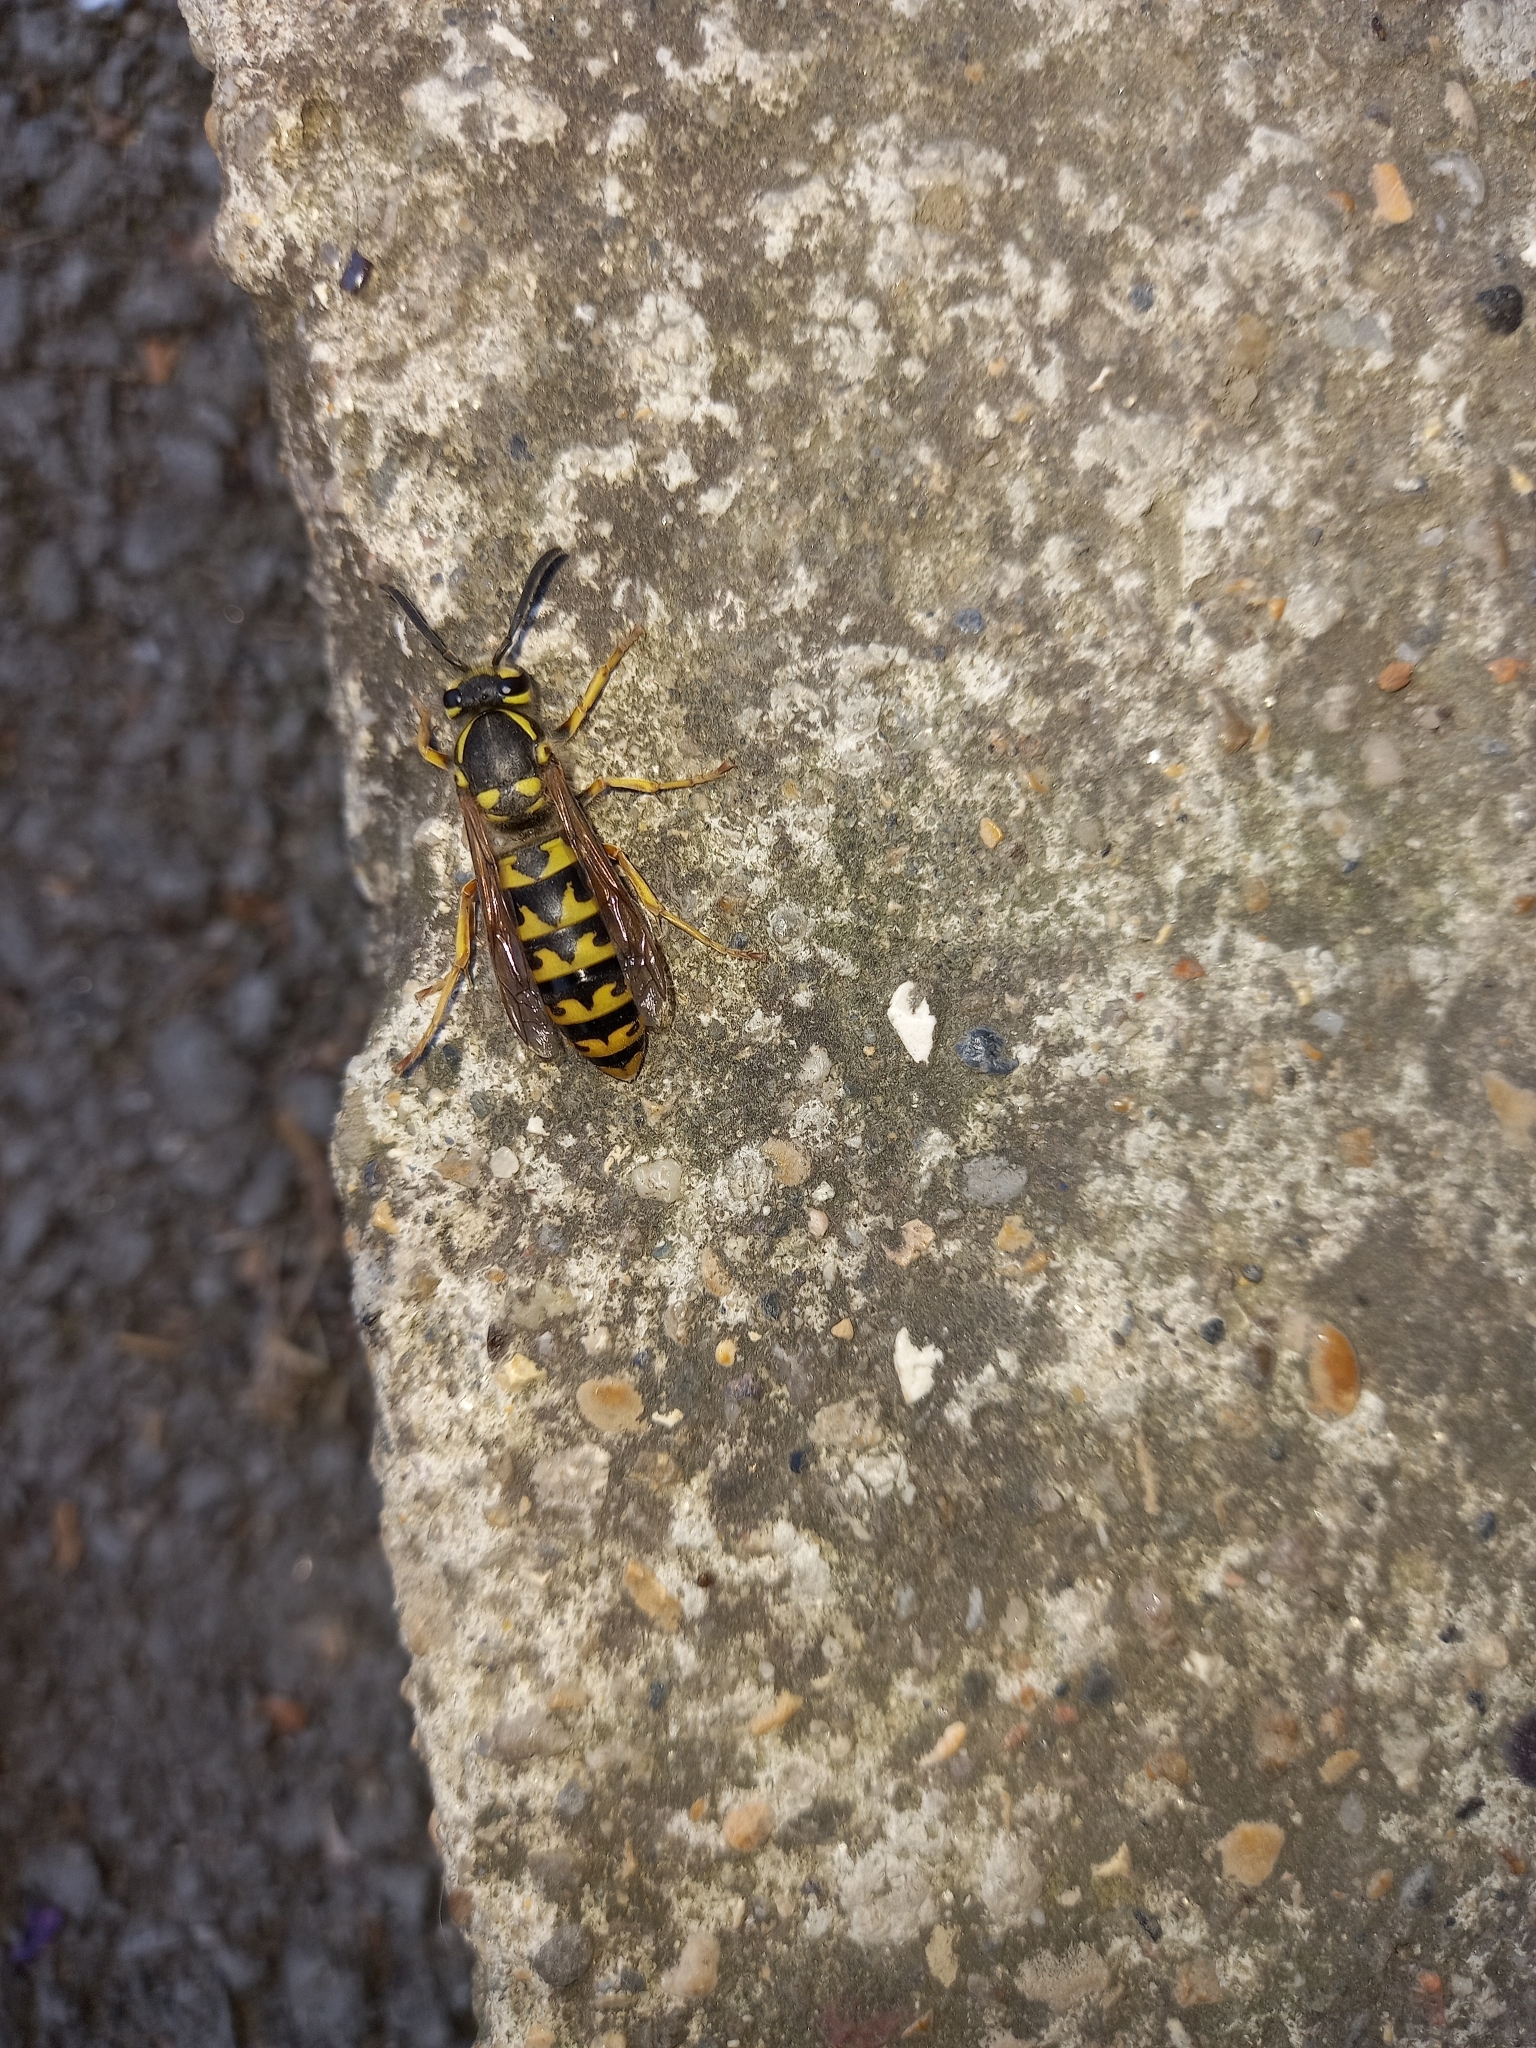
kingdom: Animalia
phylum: Arthropoda
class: Insecta
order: Hymenoptera
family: Vespidae
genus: Vespula
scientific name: Vespula germanica
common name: German wasp
